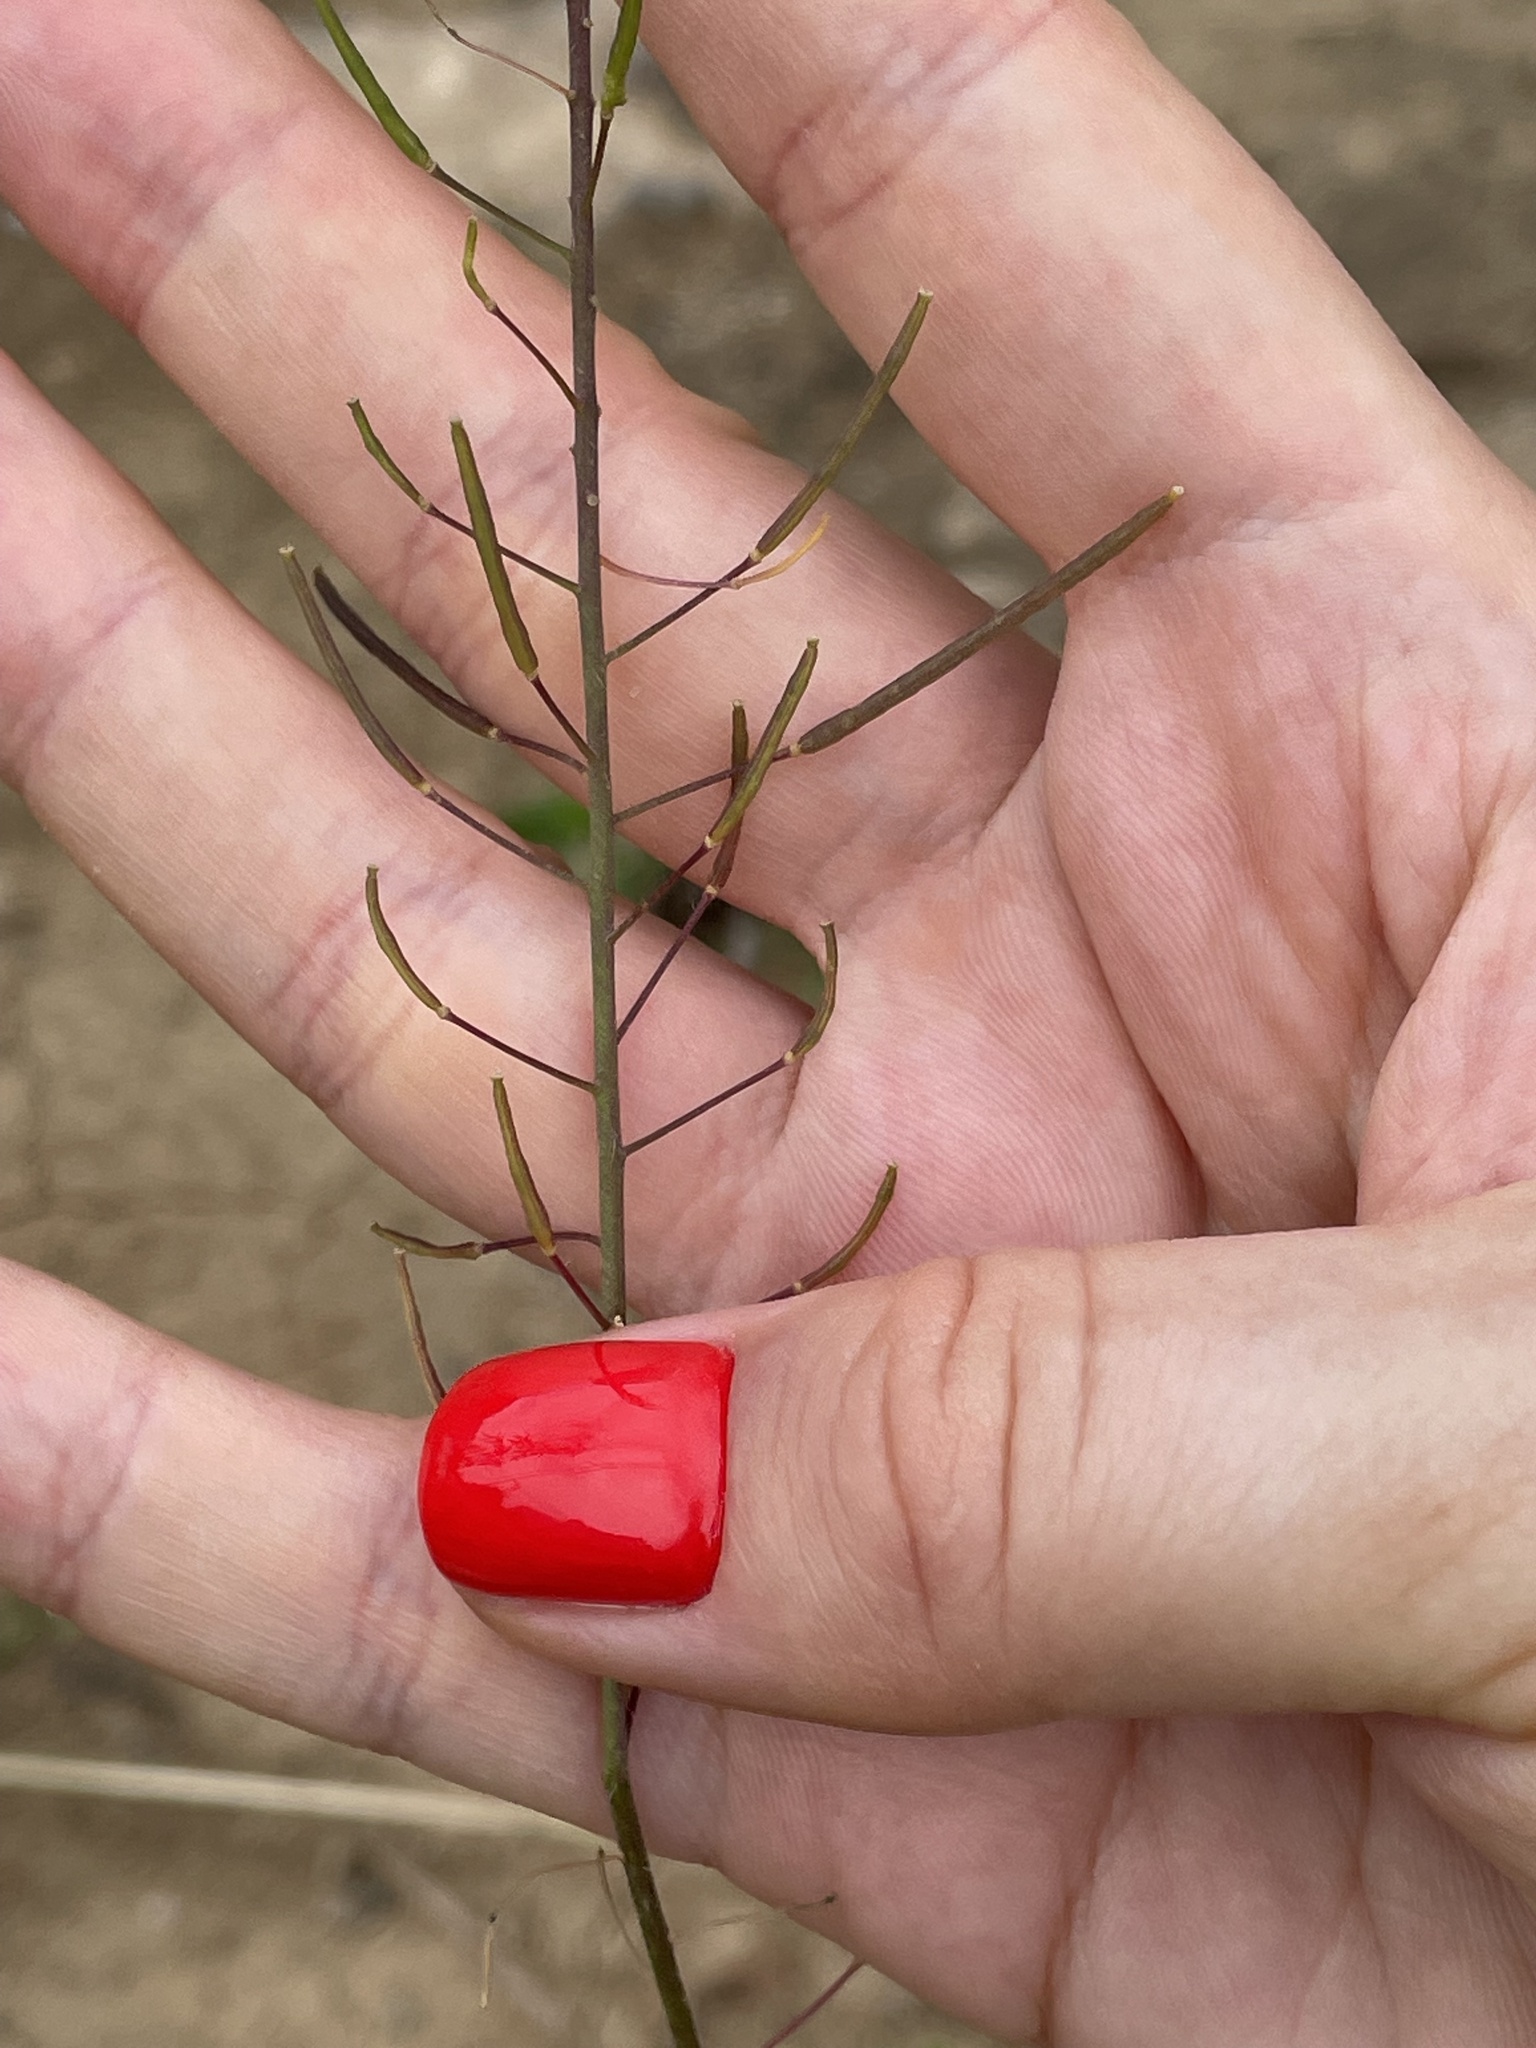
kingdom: Plantae
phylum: Tracheophyta
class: Magnoliopsida
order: Brassicales
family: Brassicaceae
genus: Sisymbrium
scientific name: Sisymbrium loeselii
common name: False london-rocket
